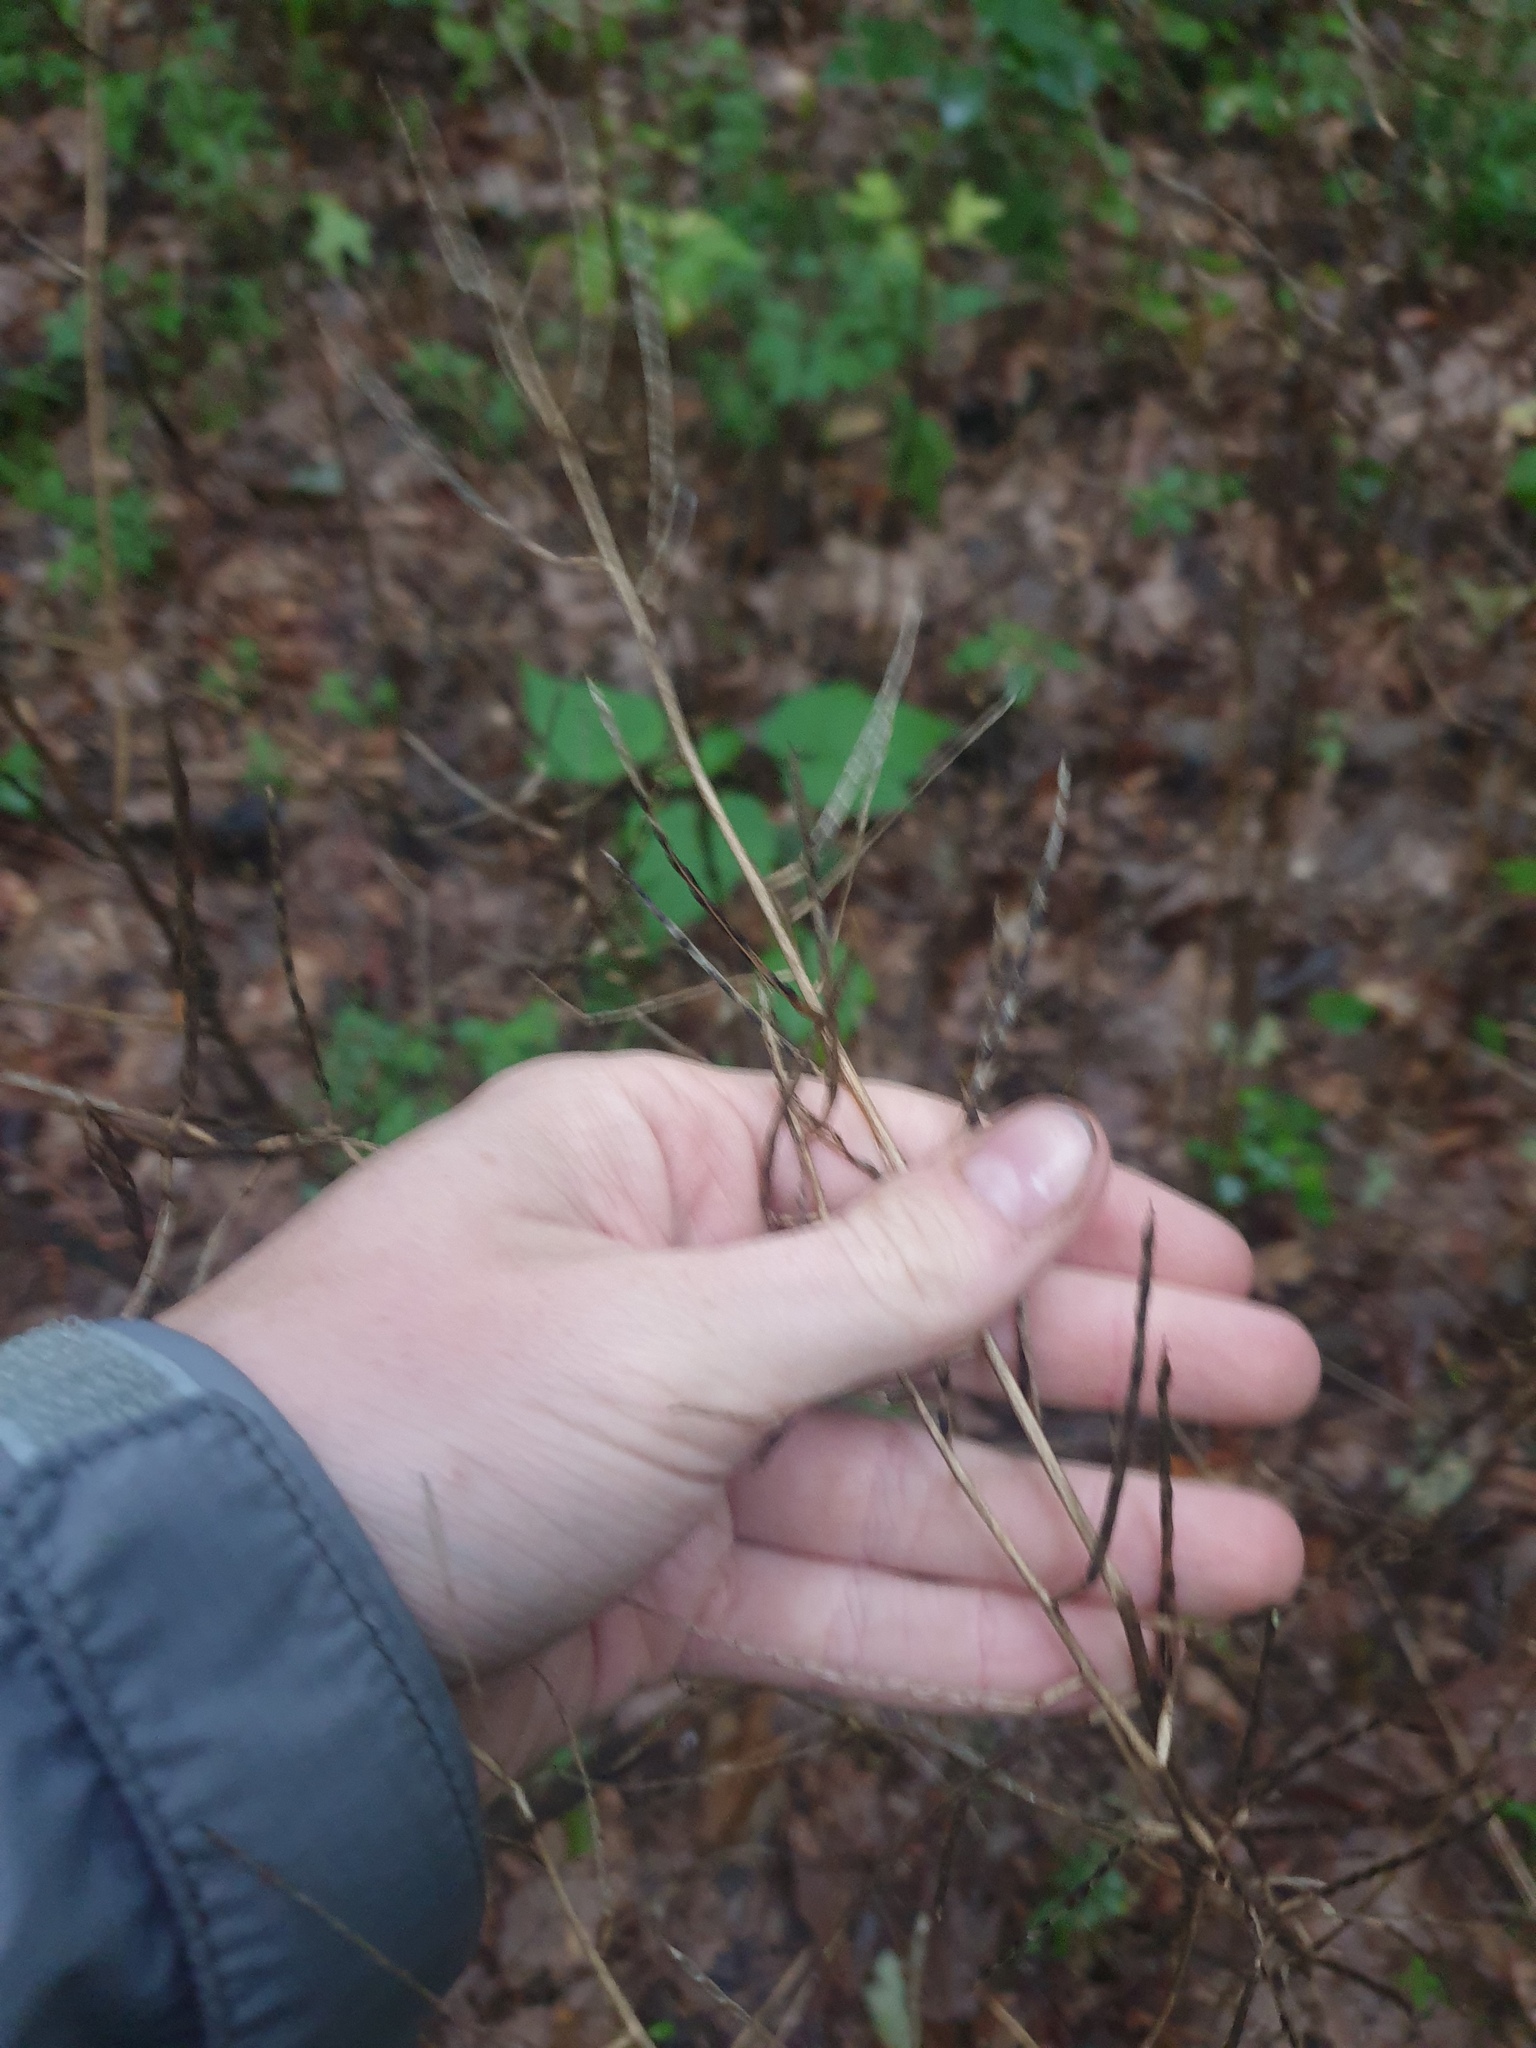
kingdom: Plantae
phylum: Tracheophyta
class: Magnoliopsida
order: Brassicales
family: Brassicaceae
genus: Alliaria
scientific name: Alliaria petiolata
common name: Garlic mustard
